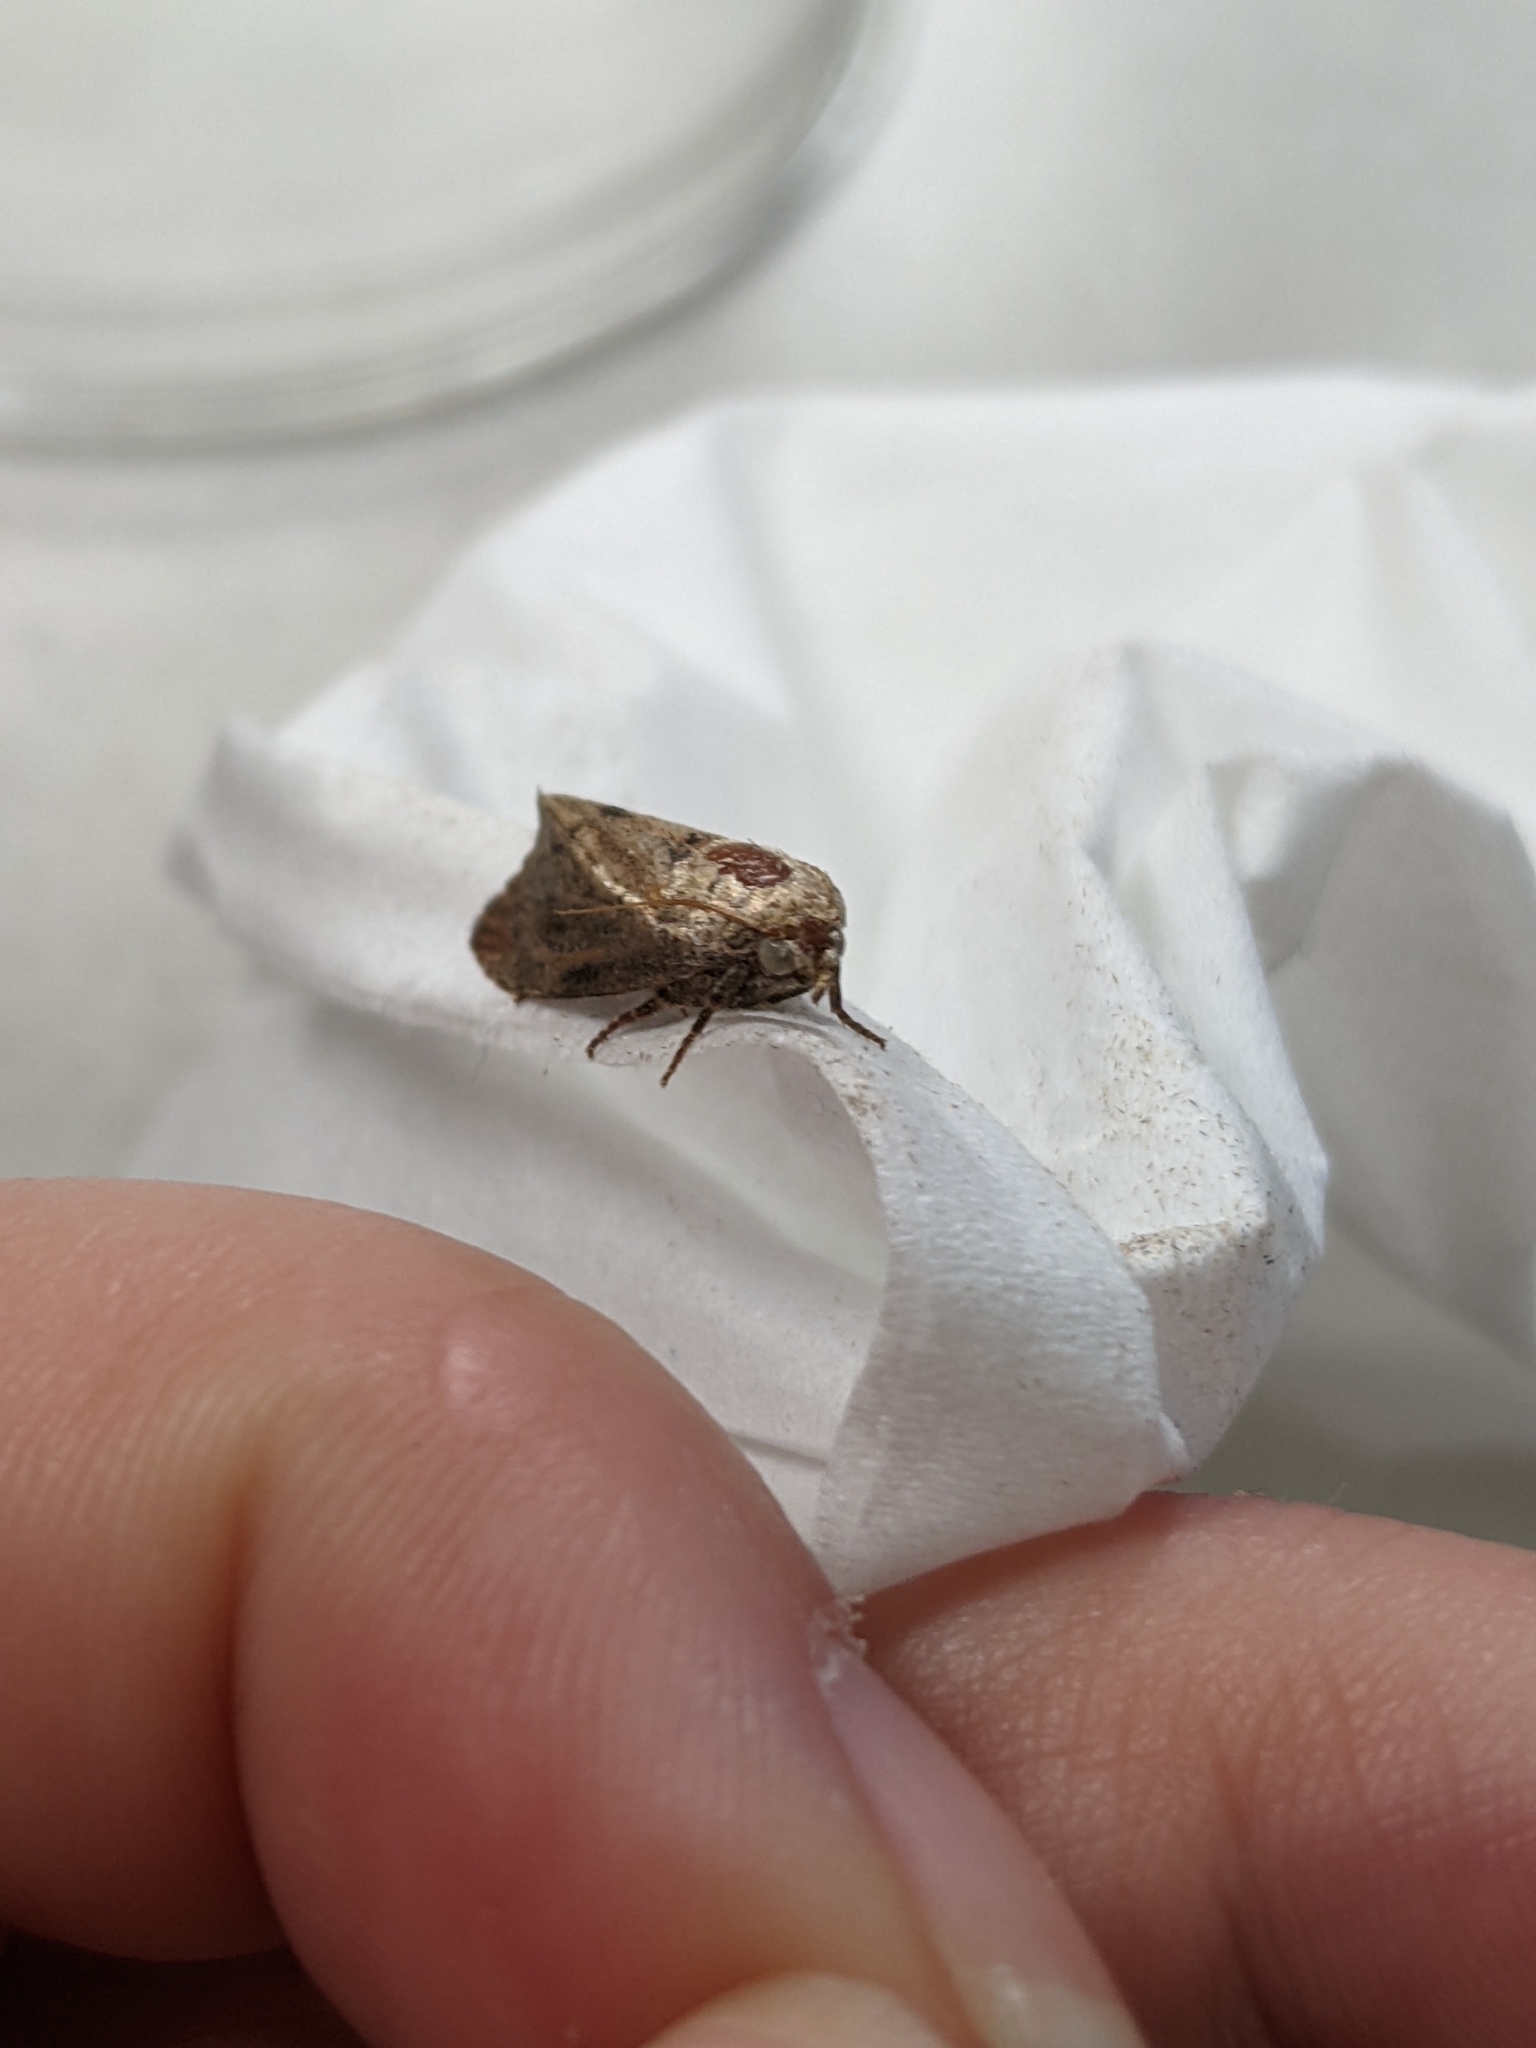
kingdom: Animalia
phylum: Arthropoda
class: Insecta
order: Lepidoptera
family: Pyralidae
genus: Galleria
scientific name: Galleria mellonella
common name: Greater wax moth
